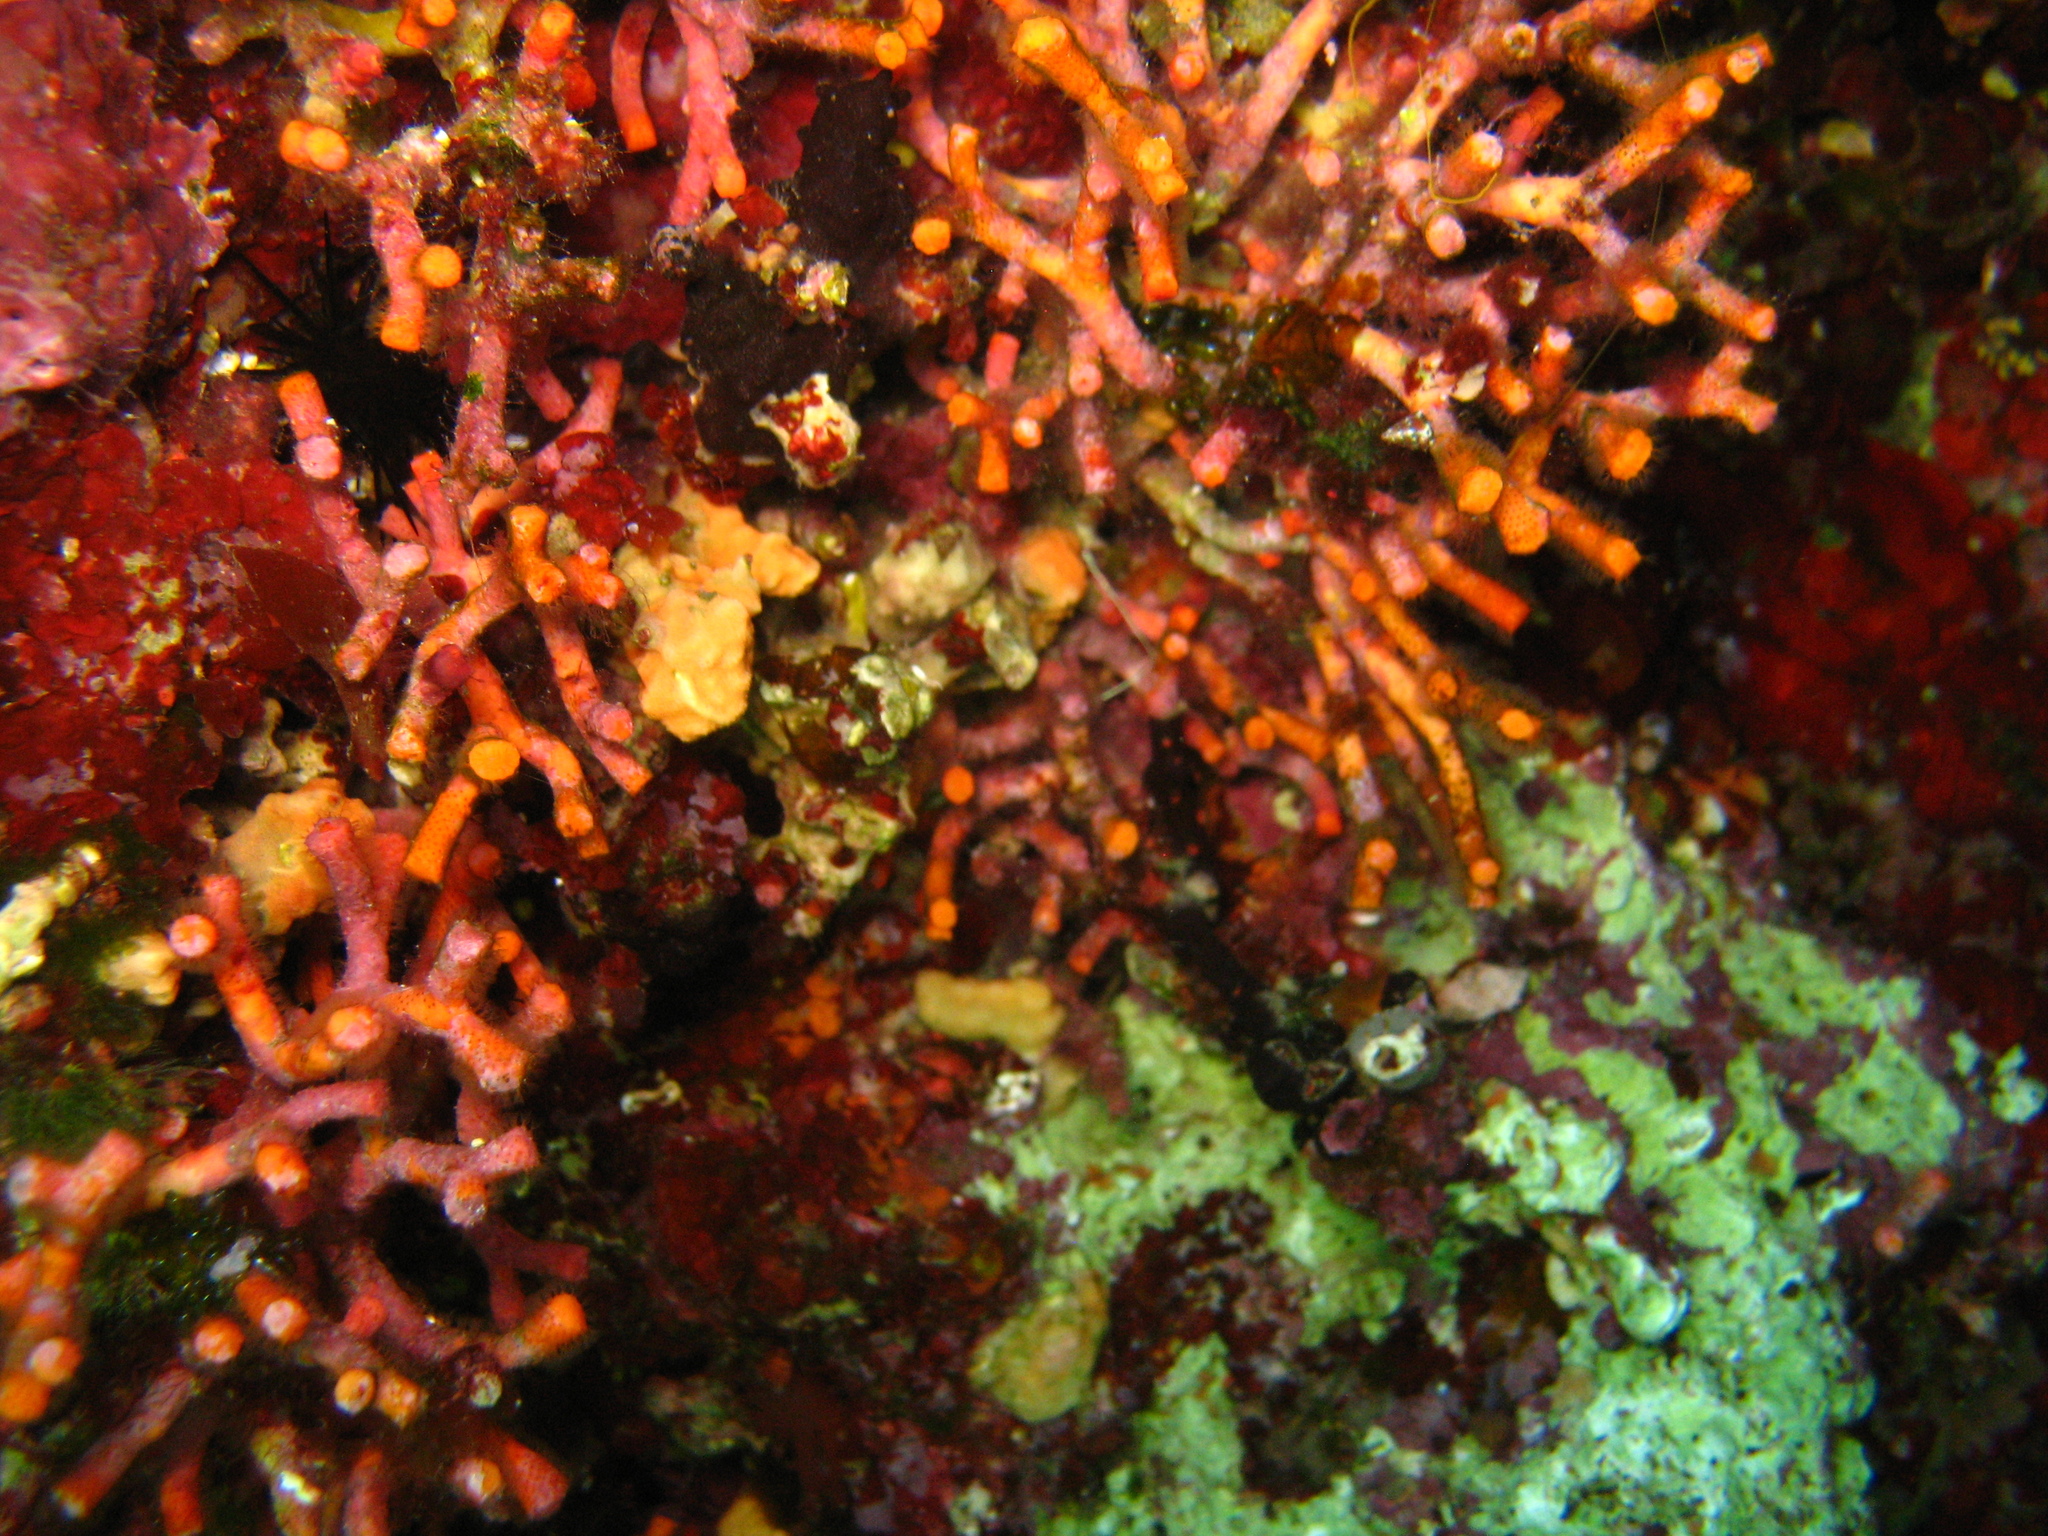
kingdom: Animalia
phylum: Bryozoa
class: Gymnolaemata
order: Cheilostomatida
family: Myriaporidae
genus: Myriapora
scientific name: Myriapora truncata
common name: False coral
